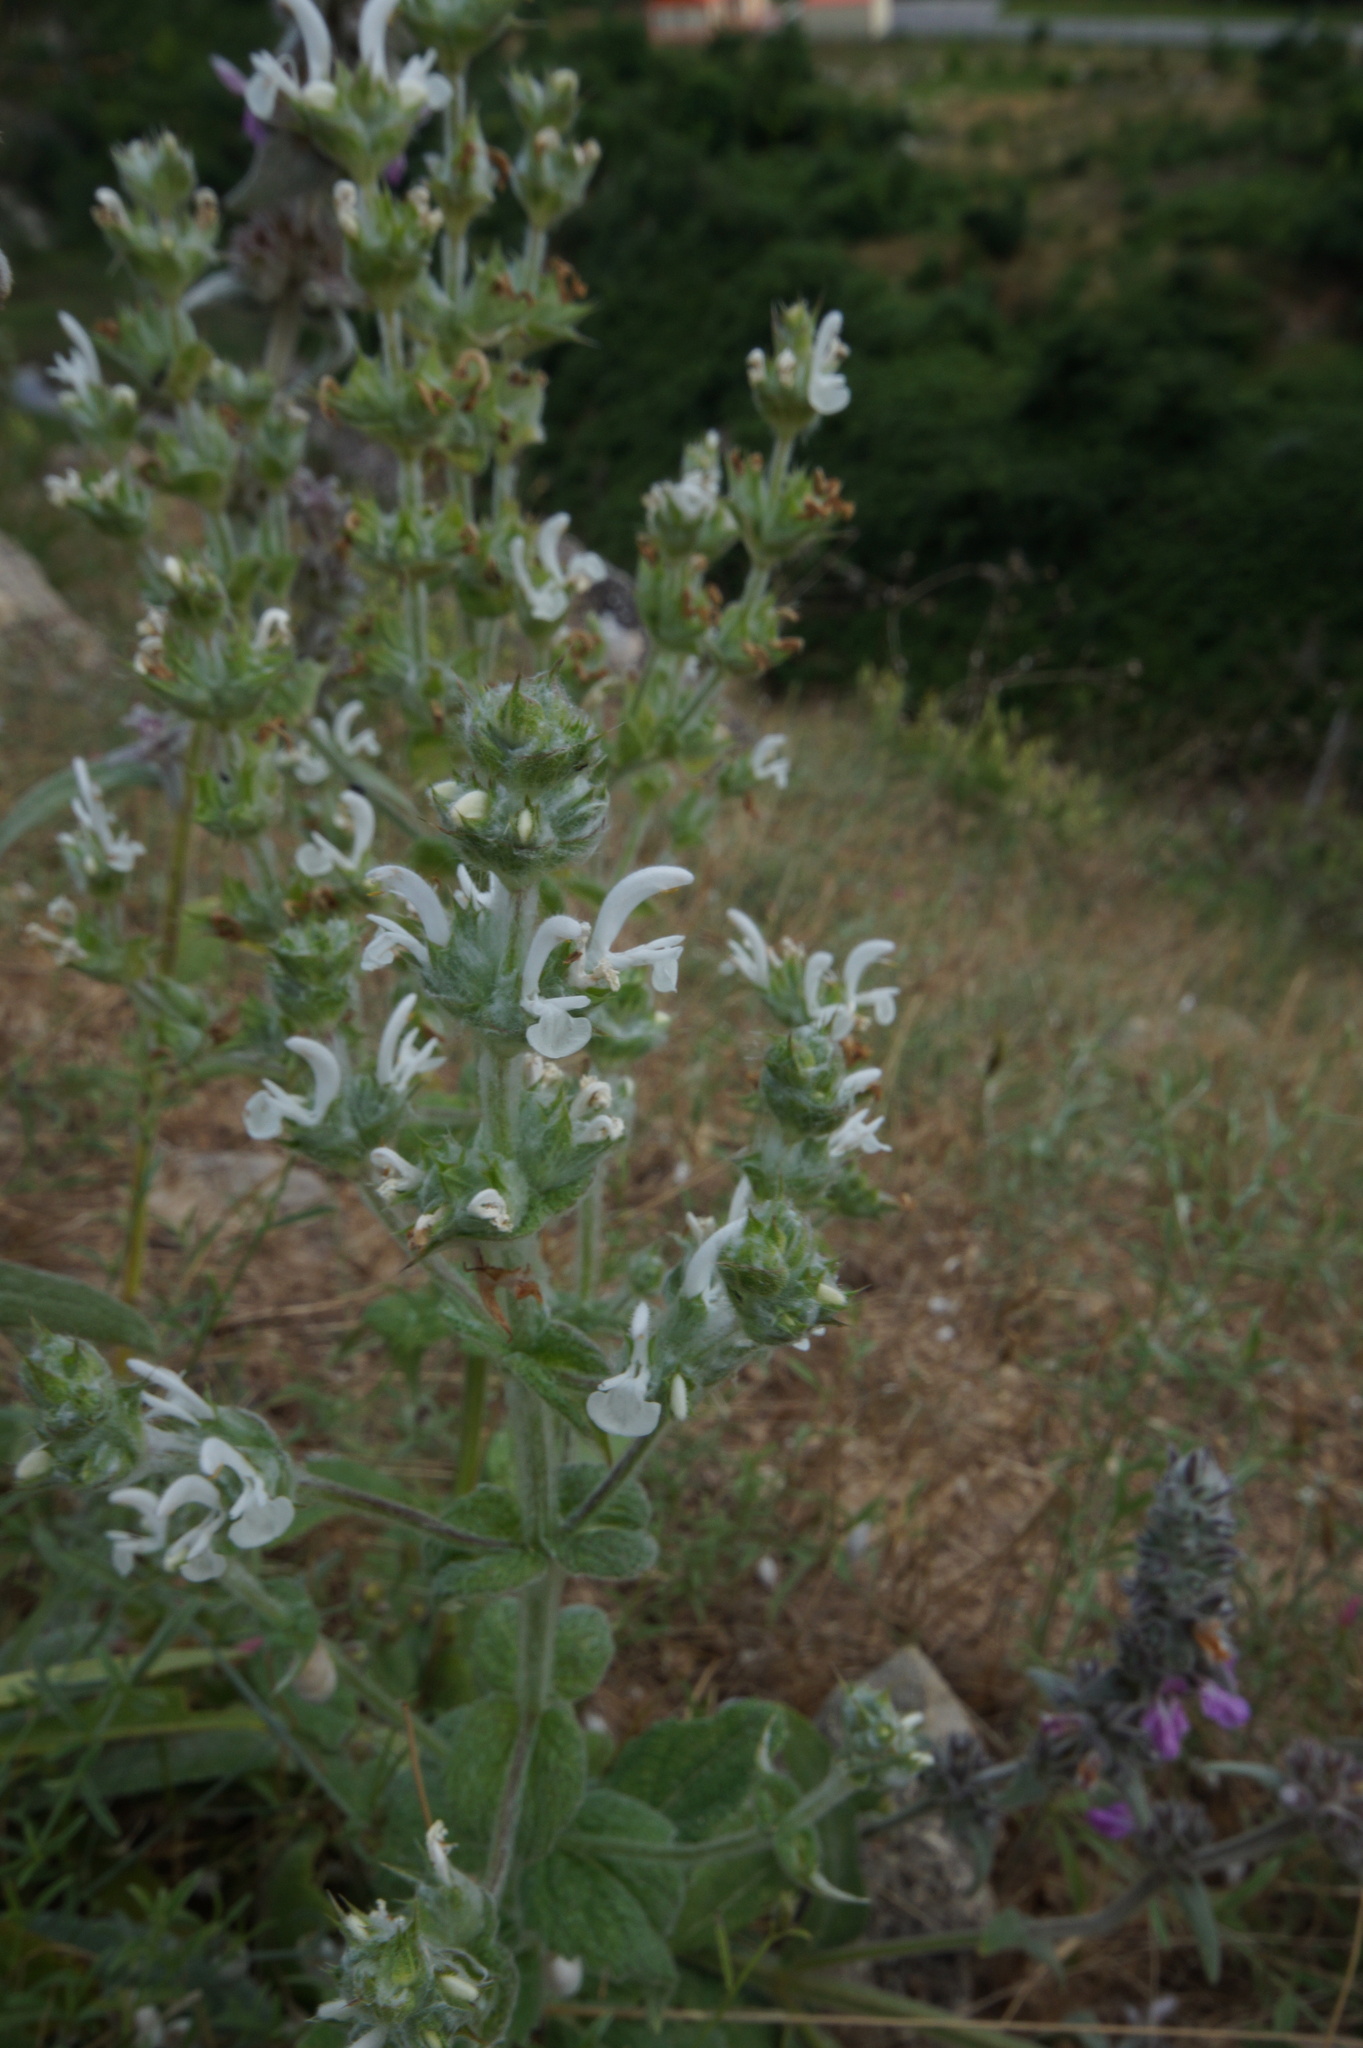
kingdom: Plantae
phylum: Tracheophyta
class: Magnoliopsida
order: Lamiales
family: Lamiaceae
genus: Salvia
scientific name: Salvia aethiopis
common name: Mediterranean sage
